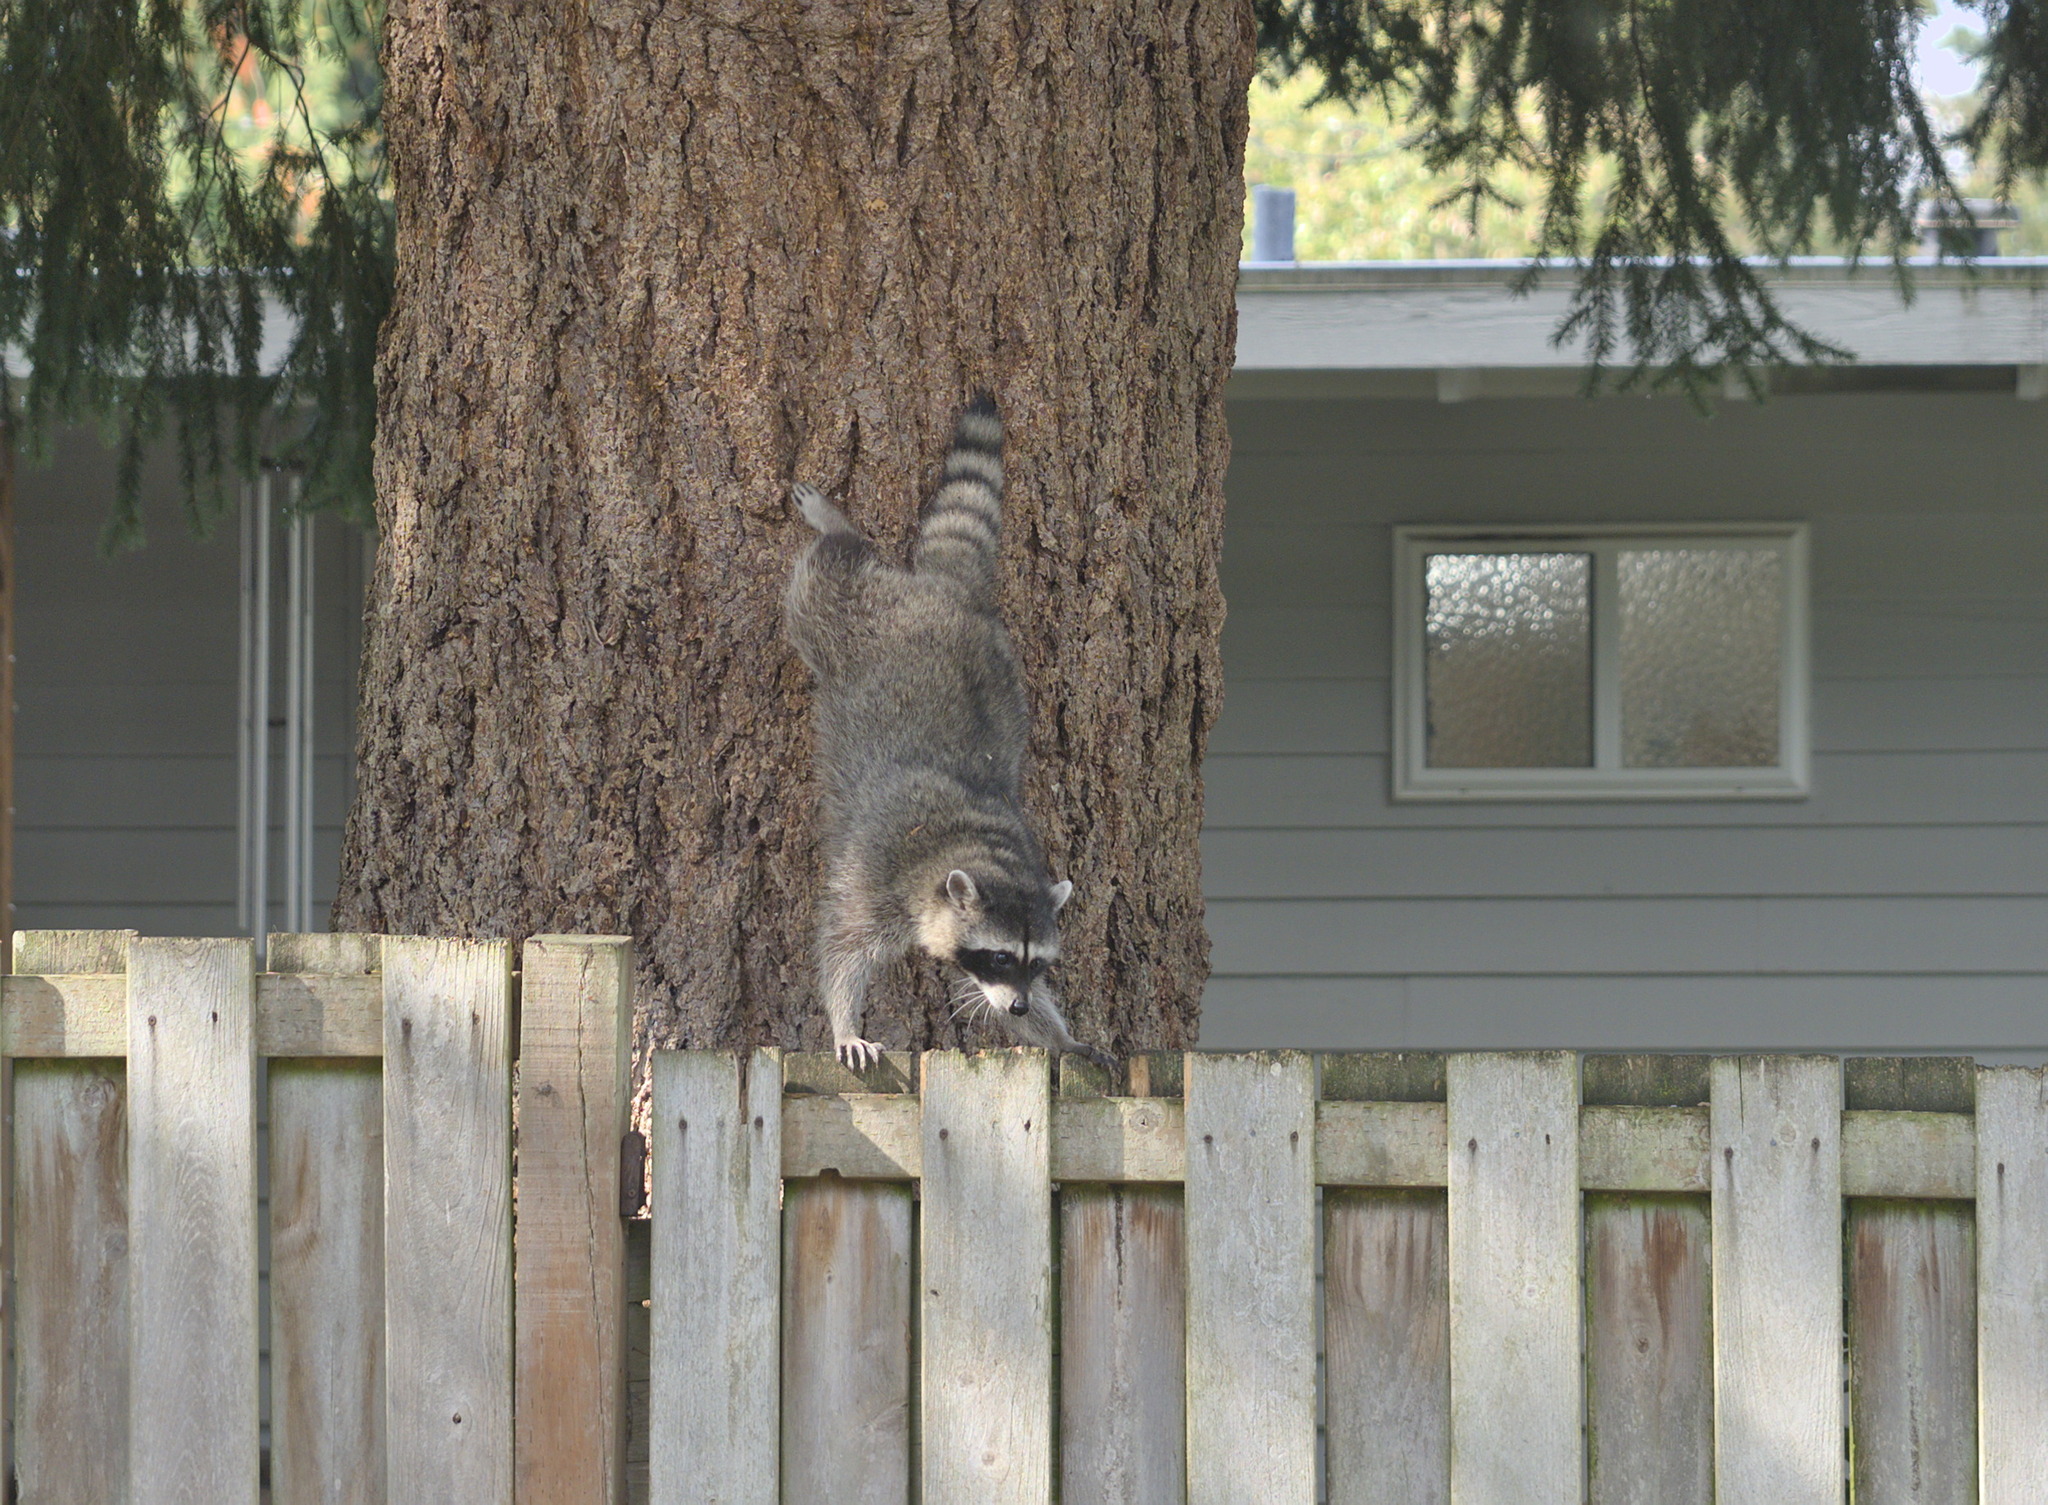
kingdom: Animalia
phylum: Chordata
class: Mammalia
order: Carnivora
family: Procyonidae
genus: Procyon
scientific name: Procyon lotor
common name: Raccoon
